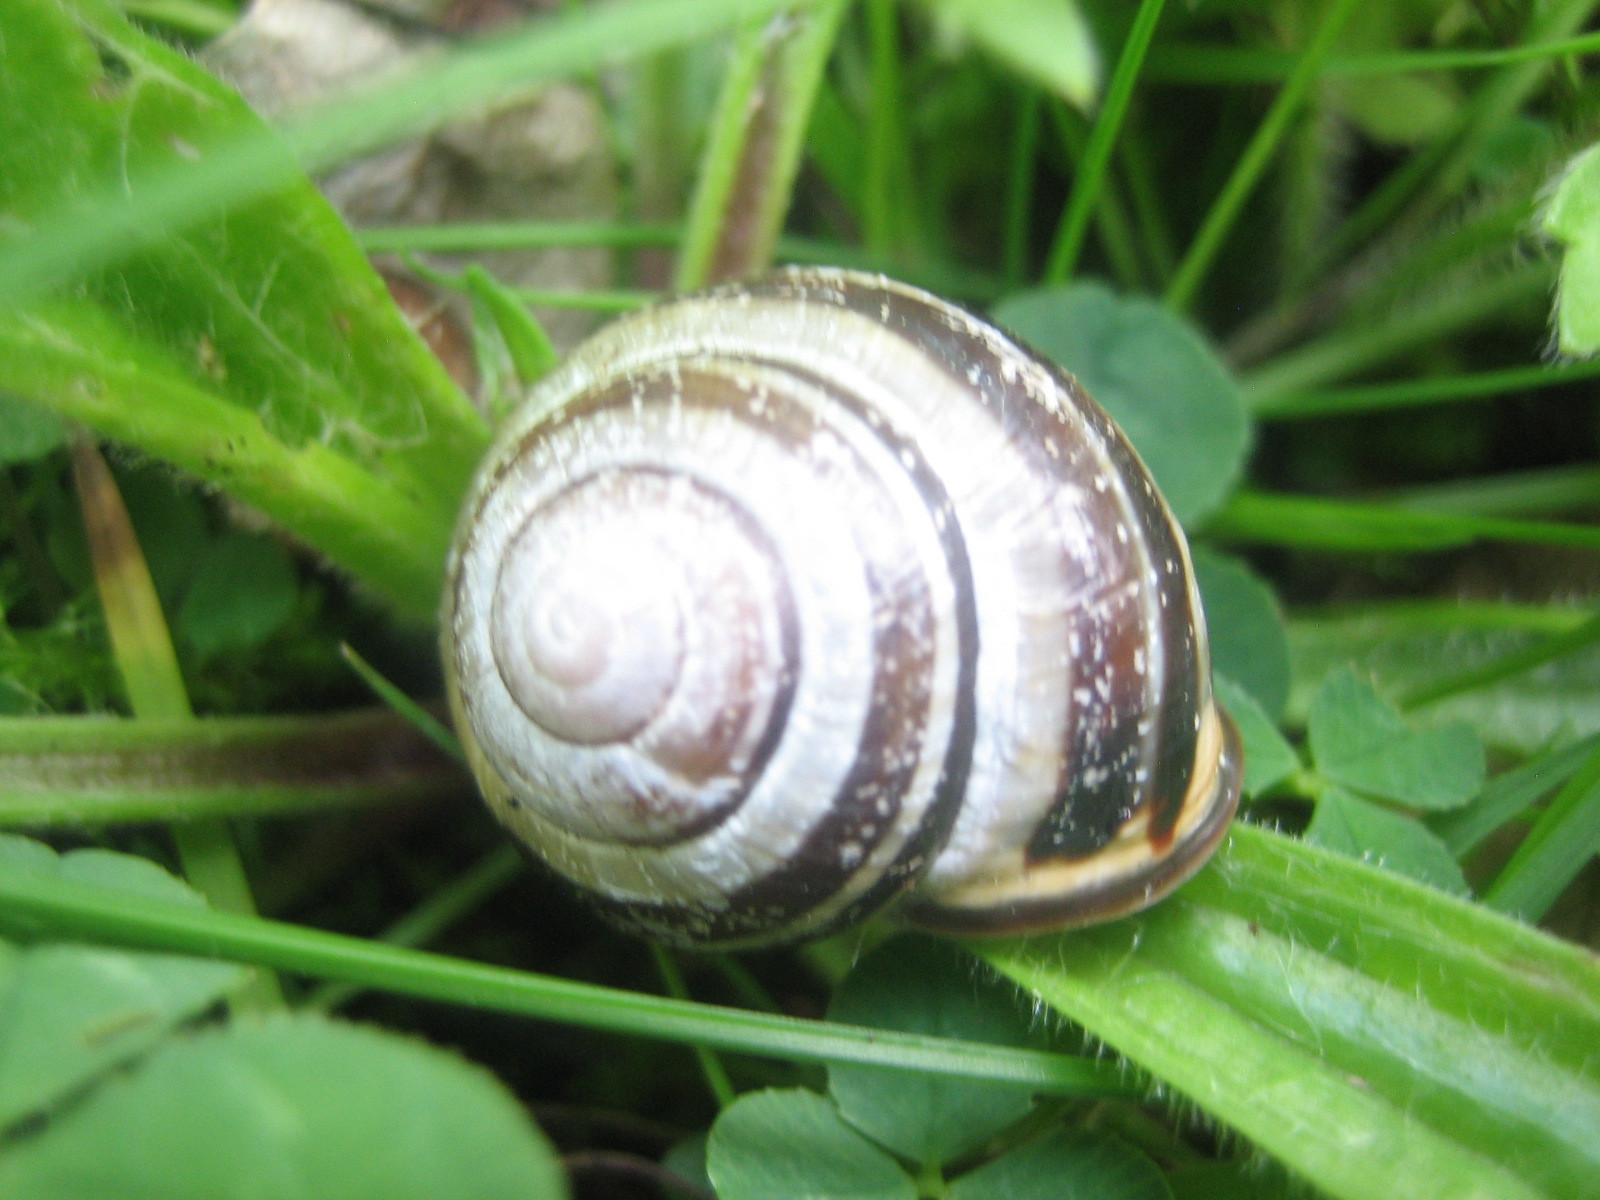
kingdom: Animalia
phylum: Mollusca
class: Gastropoda
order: Stylommatophora
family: Helicidae
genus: Cepaea
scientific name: Cepaea nemoralis
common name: Grovesnail
